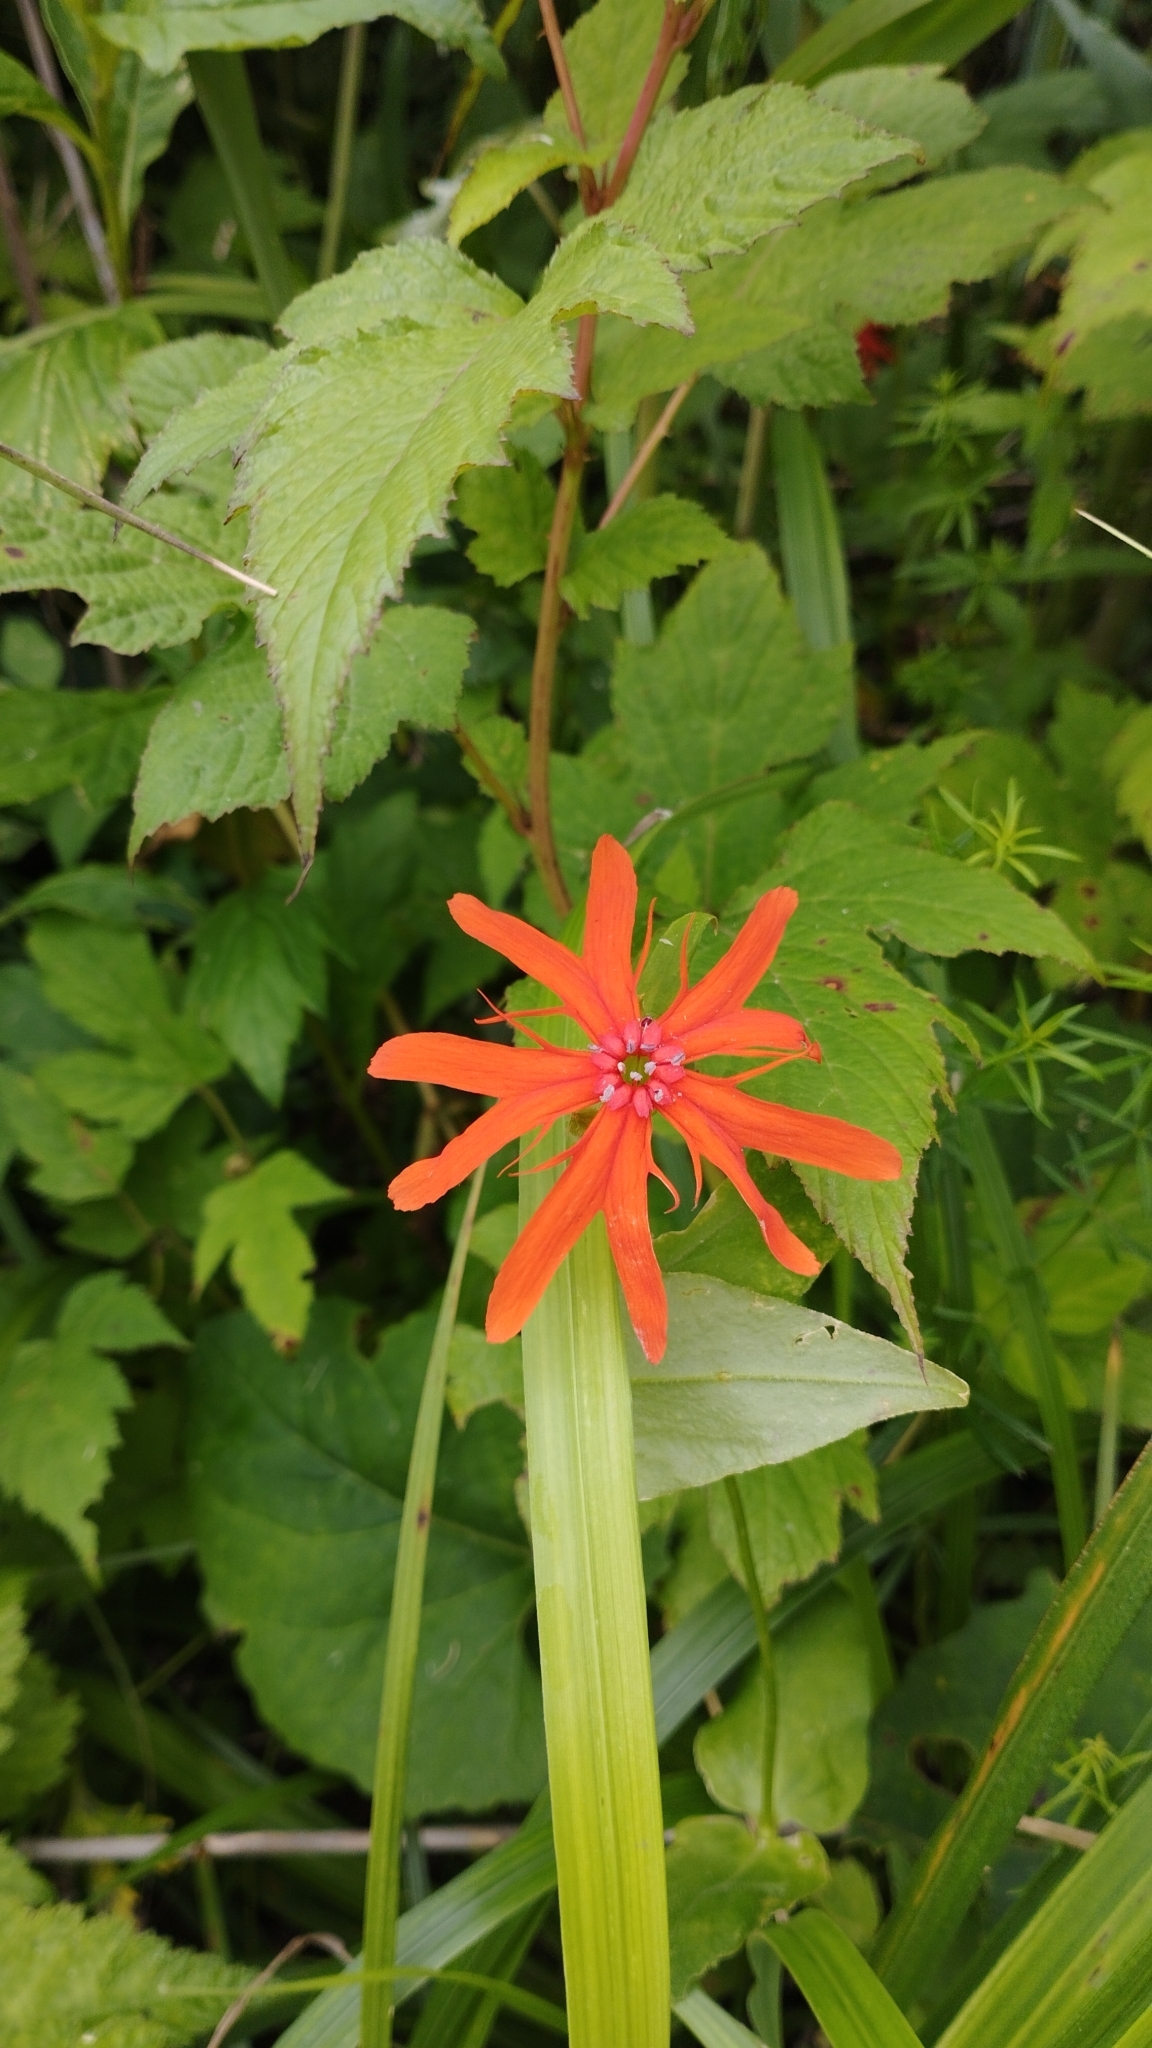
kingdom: Plantae
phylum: Tracheophyta
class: Magnoliopsida
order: Caryophyllales
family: Caryophyllaceae
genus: Silene
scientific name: Silene banksia
